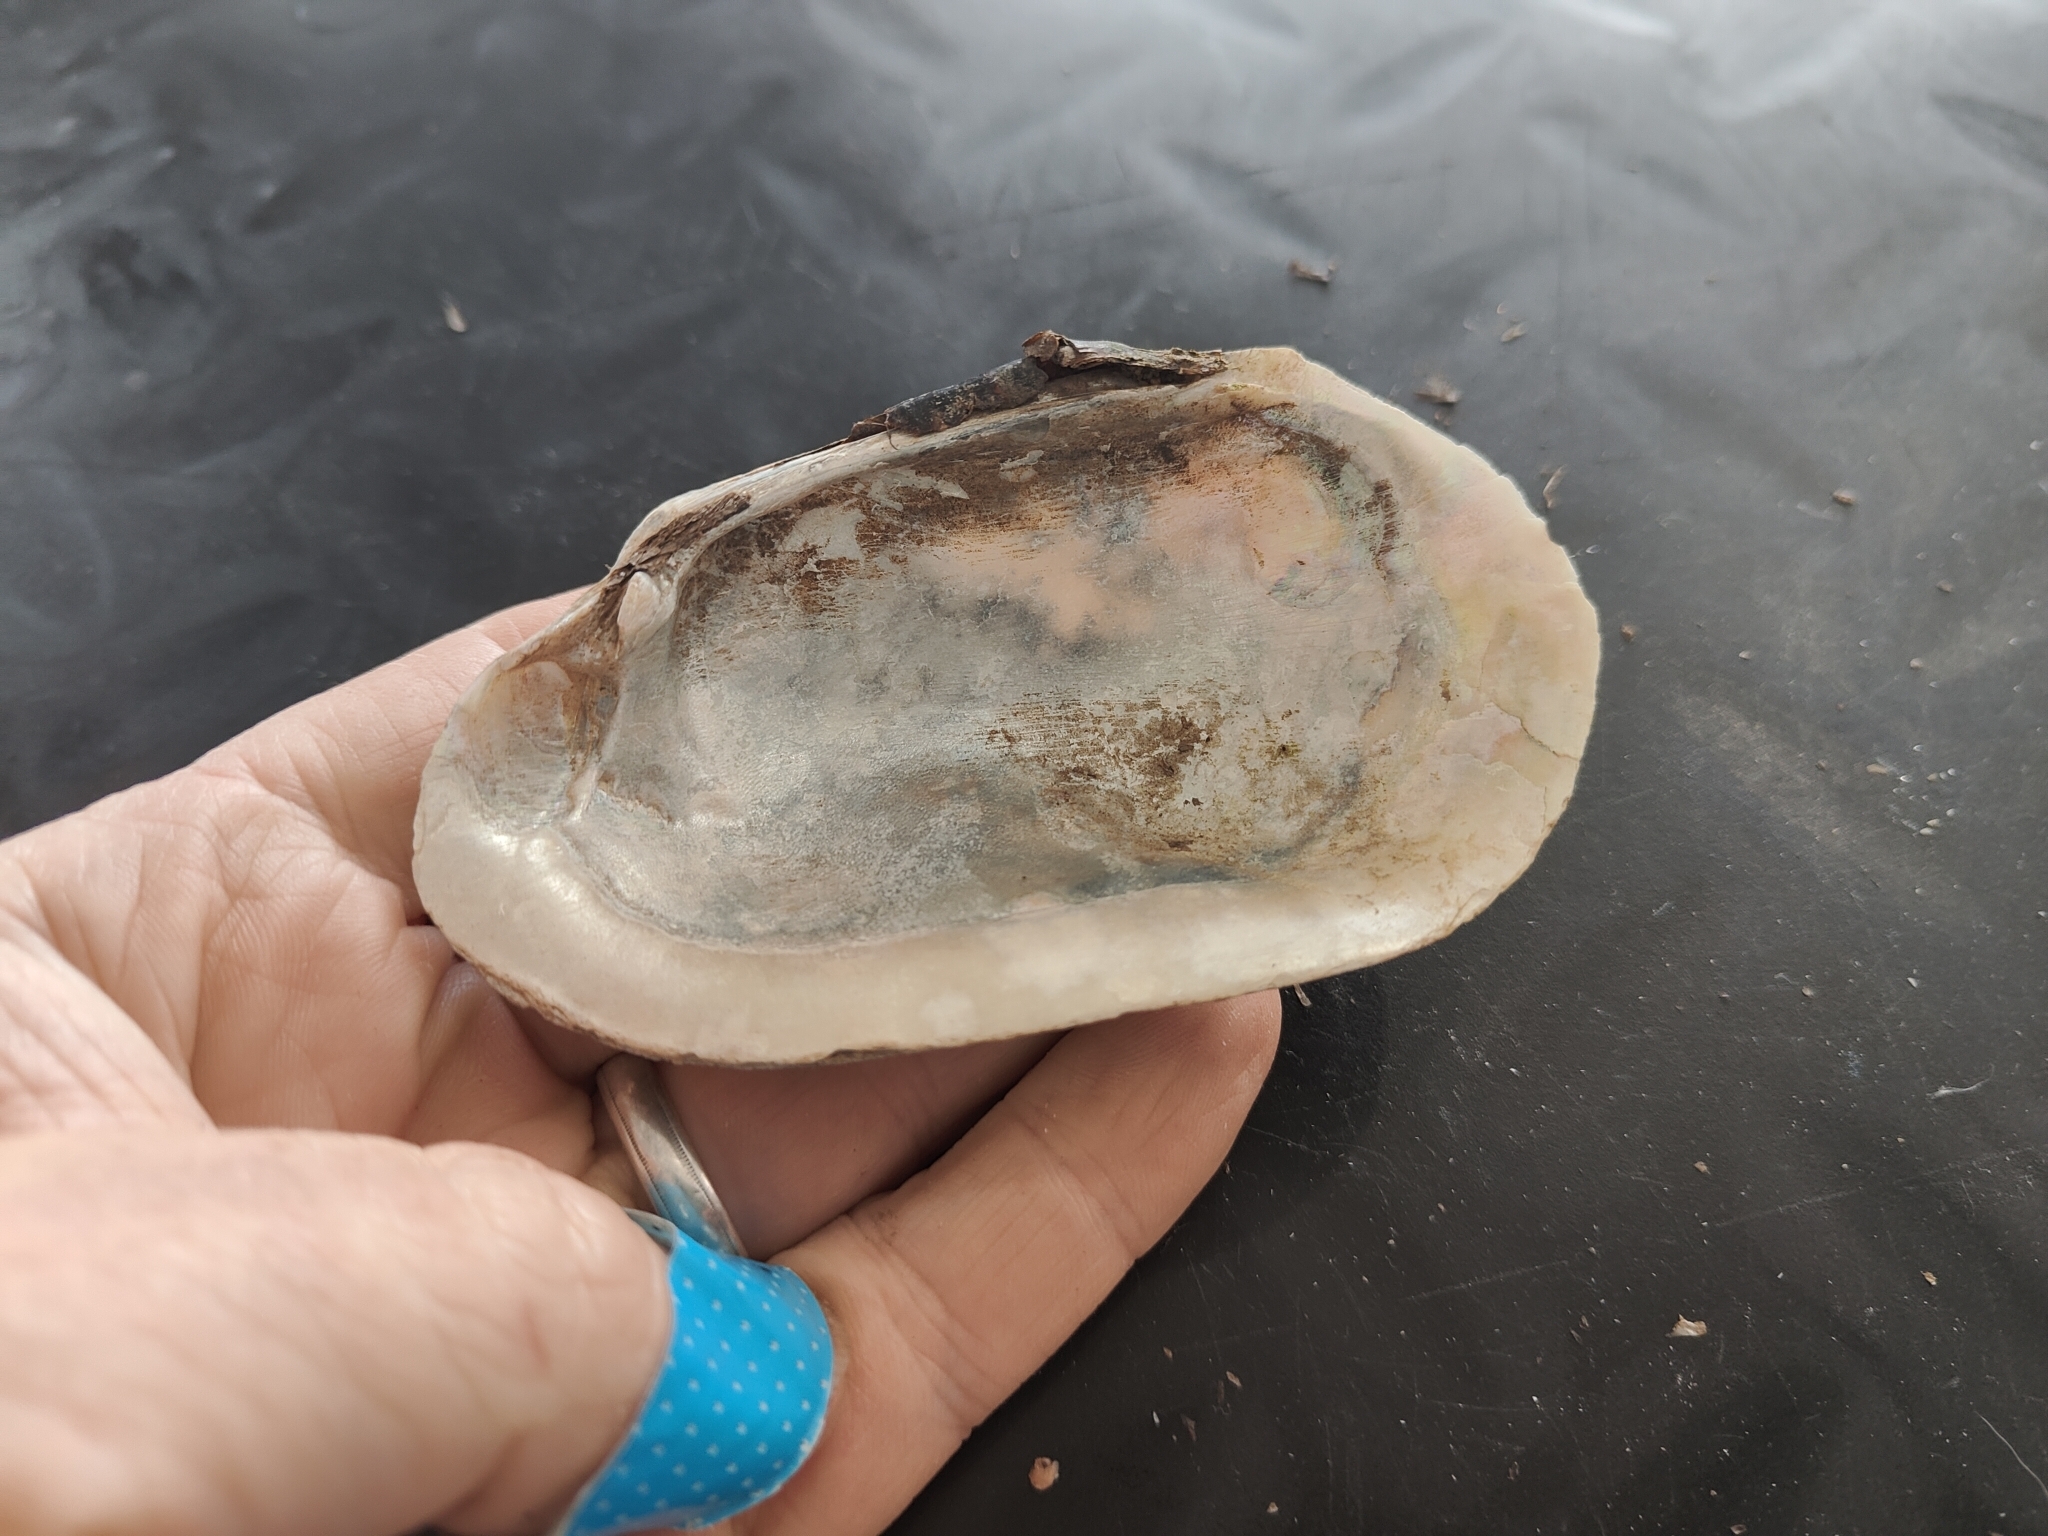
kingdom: Animalia
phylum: Mollusca
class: Bivalvia
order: Unionida
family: Unionidae
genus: Lampsilis
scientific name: Lampsilis siliquoidea
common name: Fatmucket
